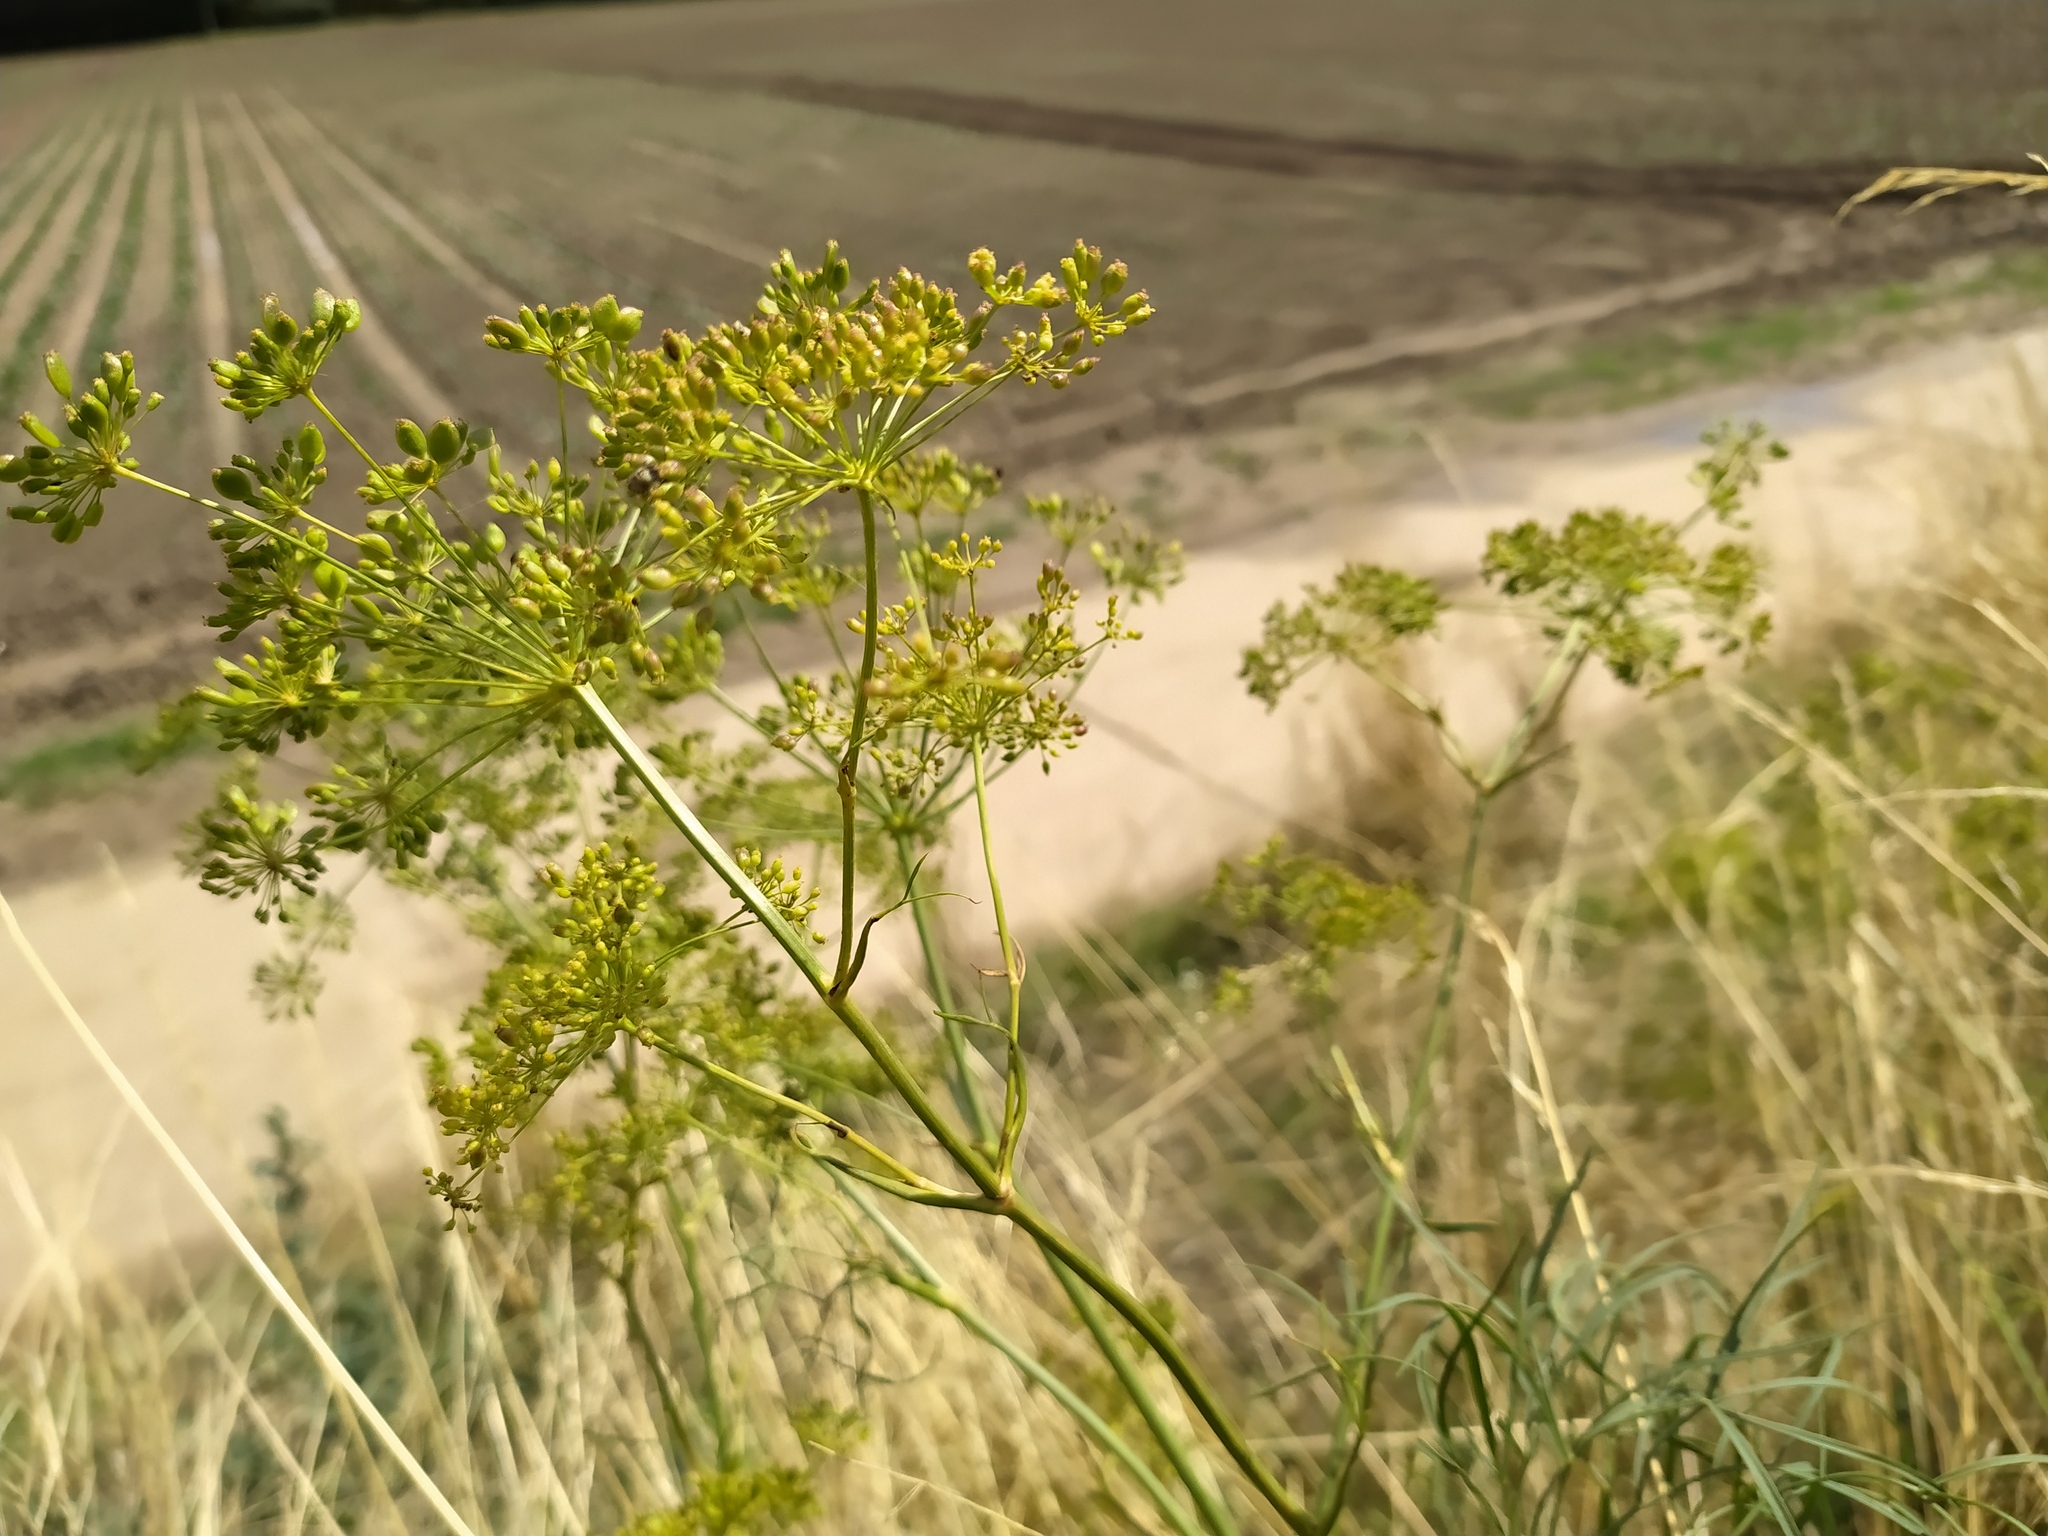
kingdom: Plantae
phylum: Tracheophyta
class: Magnoliopsida
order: Apiales
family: Apiaceae
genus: Peucedanum
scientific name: Peucedanum officinale
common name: Sulphurweed
